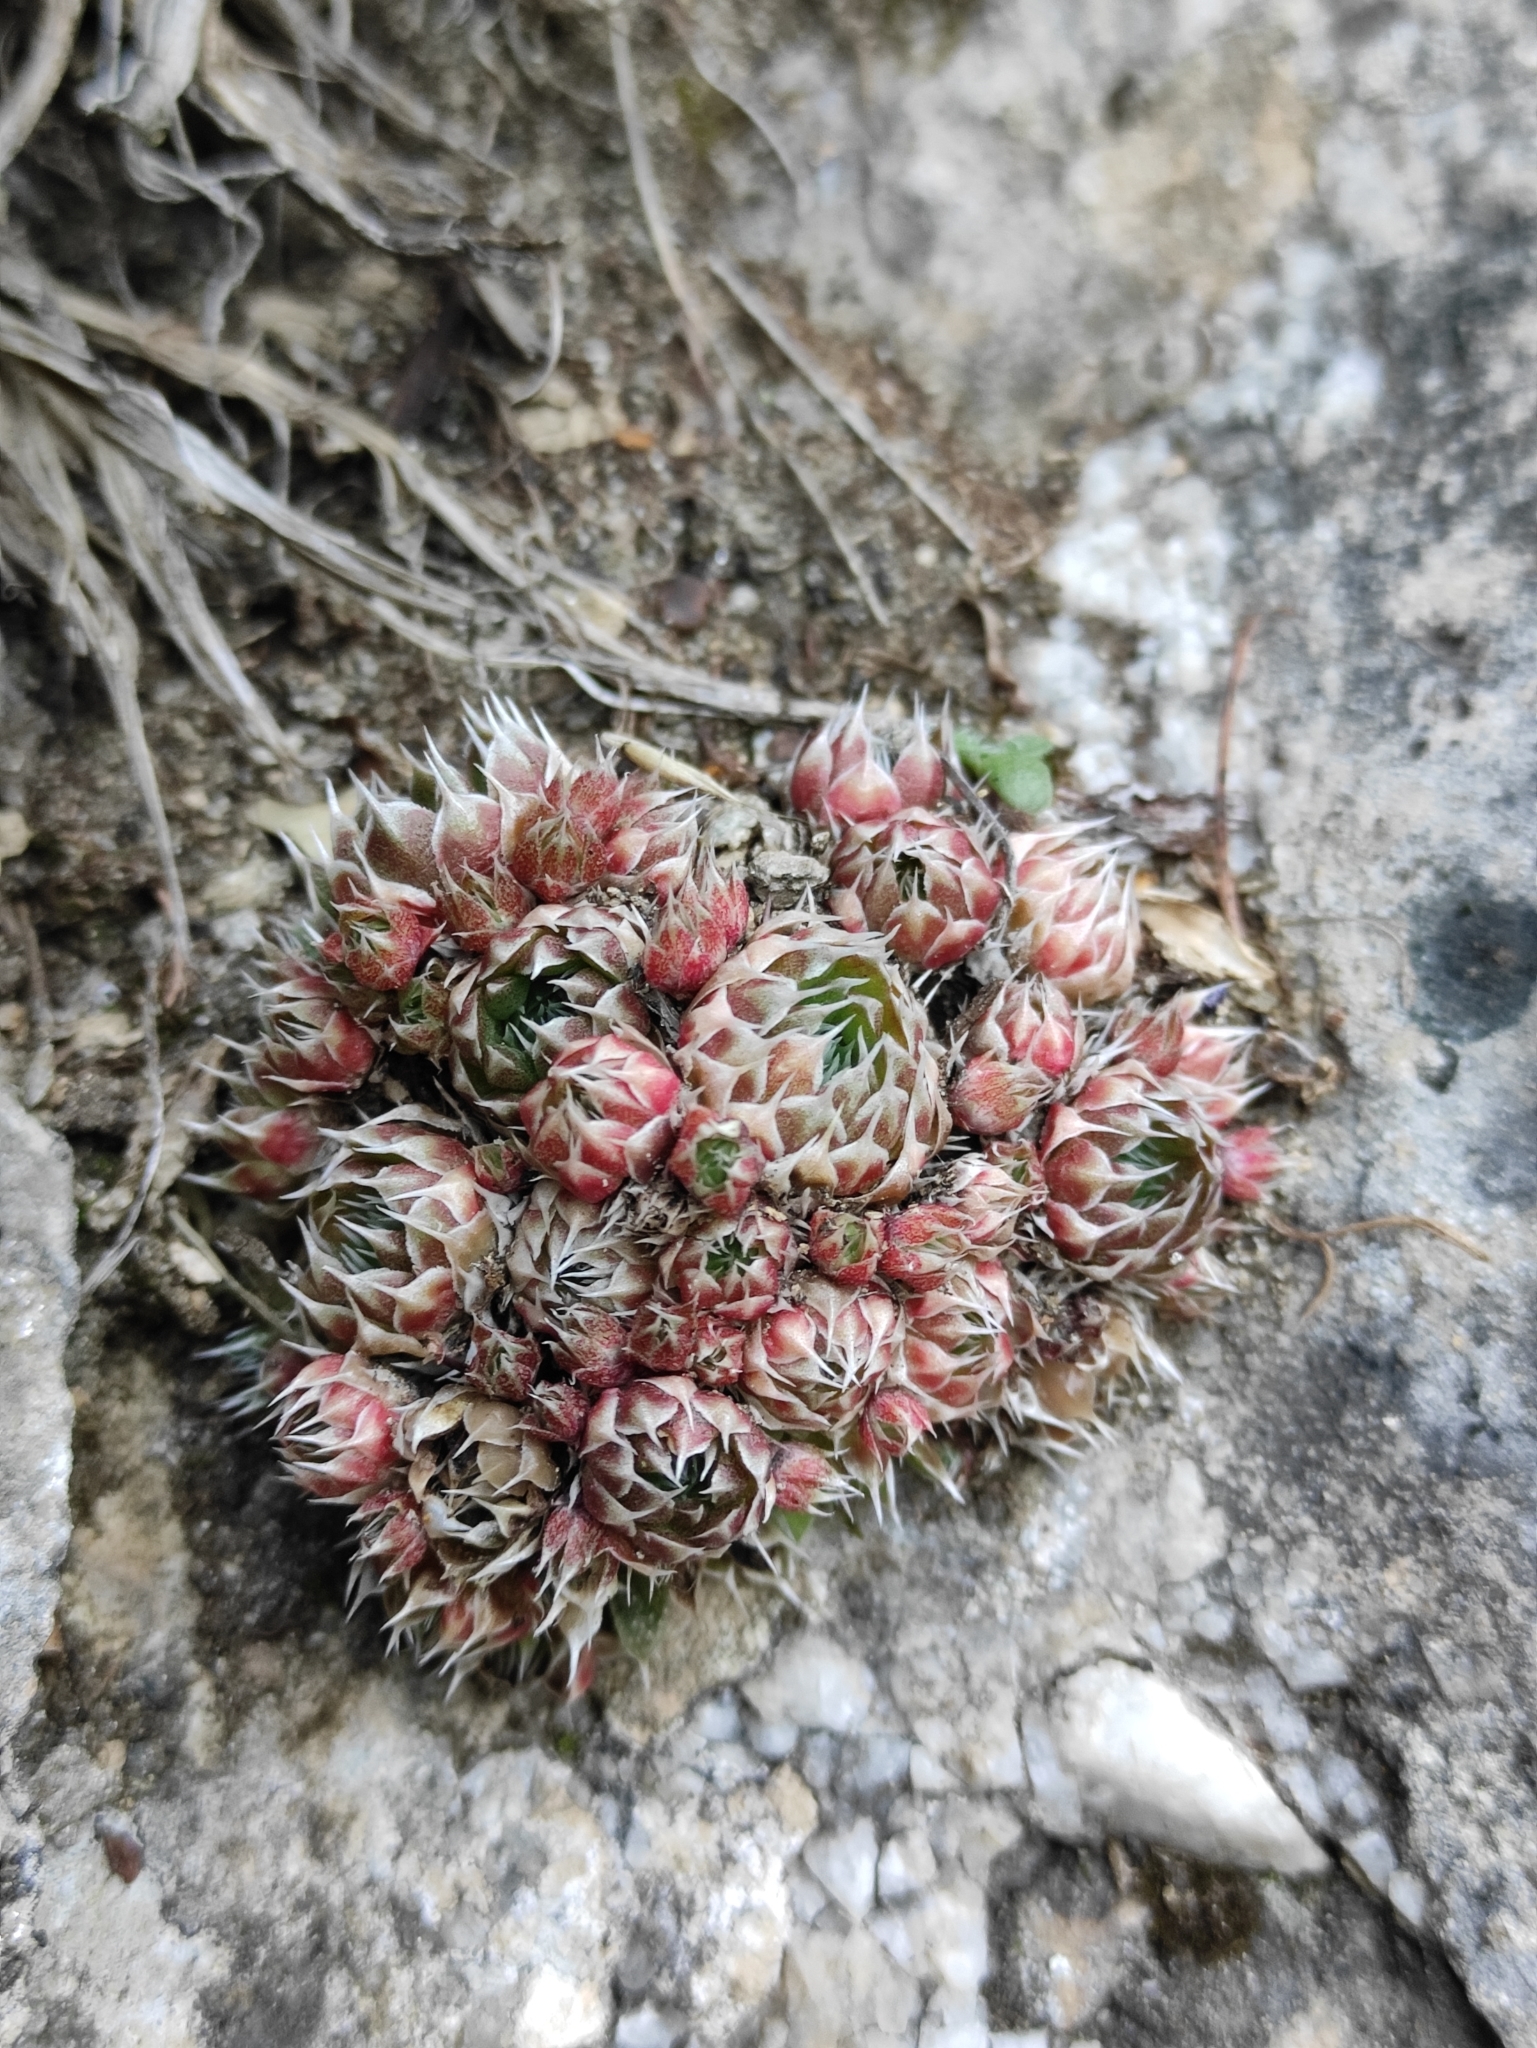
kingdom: Plantae
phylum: Tracheophyta
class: Magnoliopsida
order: Saxifragales
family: Crassulaceae
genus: Orostachys
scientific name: Orostachys spinosa
